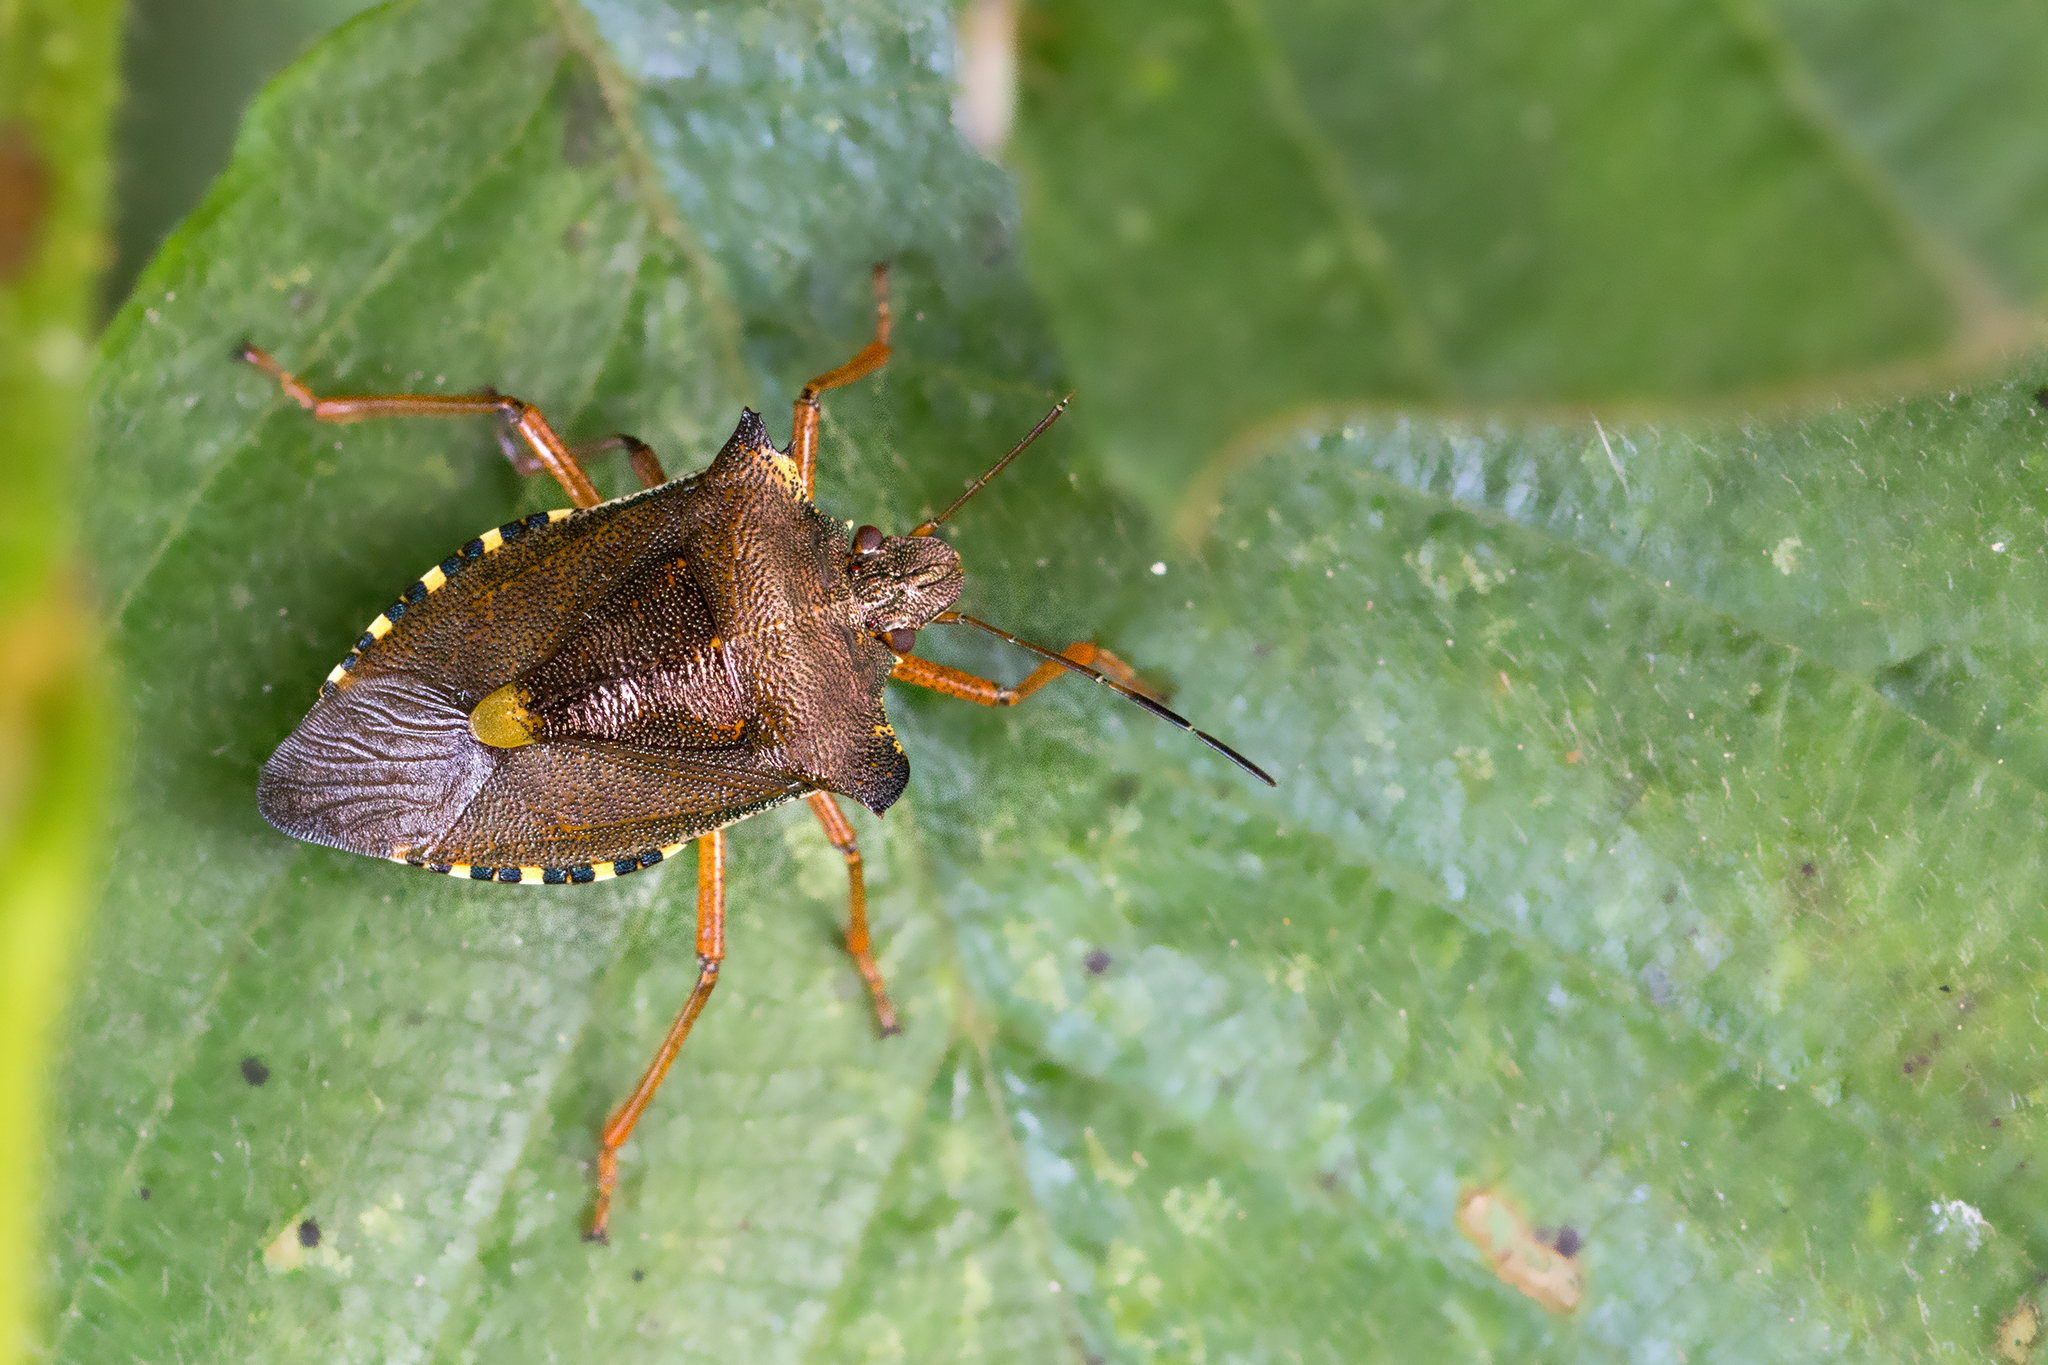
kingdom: Animalia
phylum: Arthropoda
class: Insecta
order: Hemiptera
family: Pentatomidae
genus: Pentatoma
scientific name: Pentatoma rufipes
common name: Forest bug
